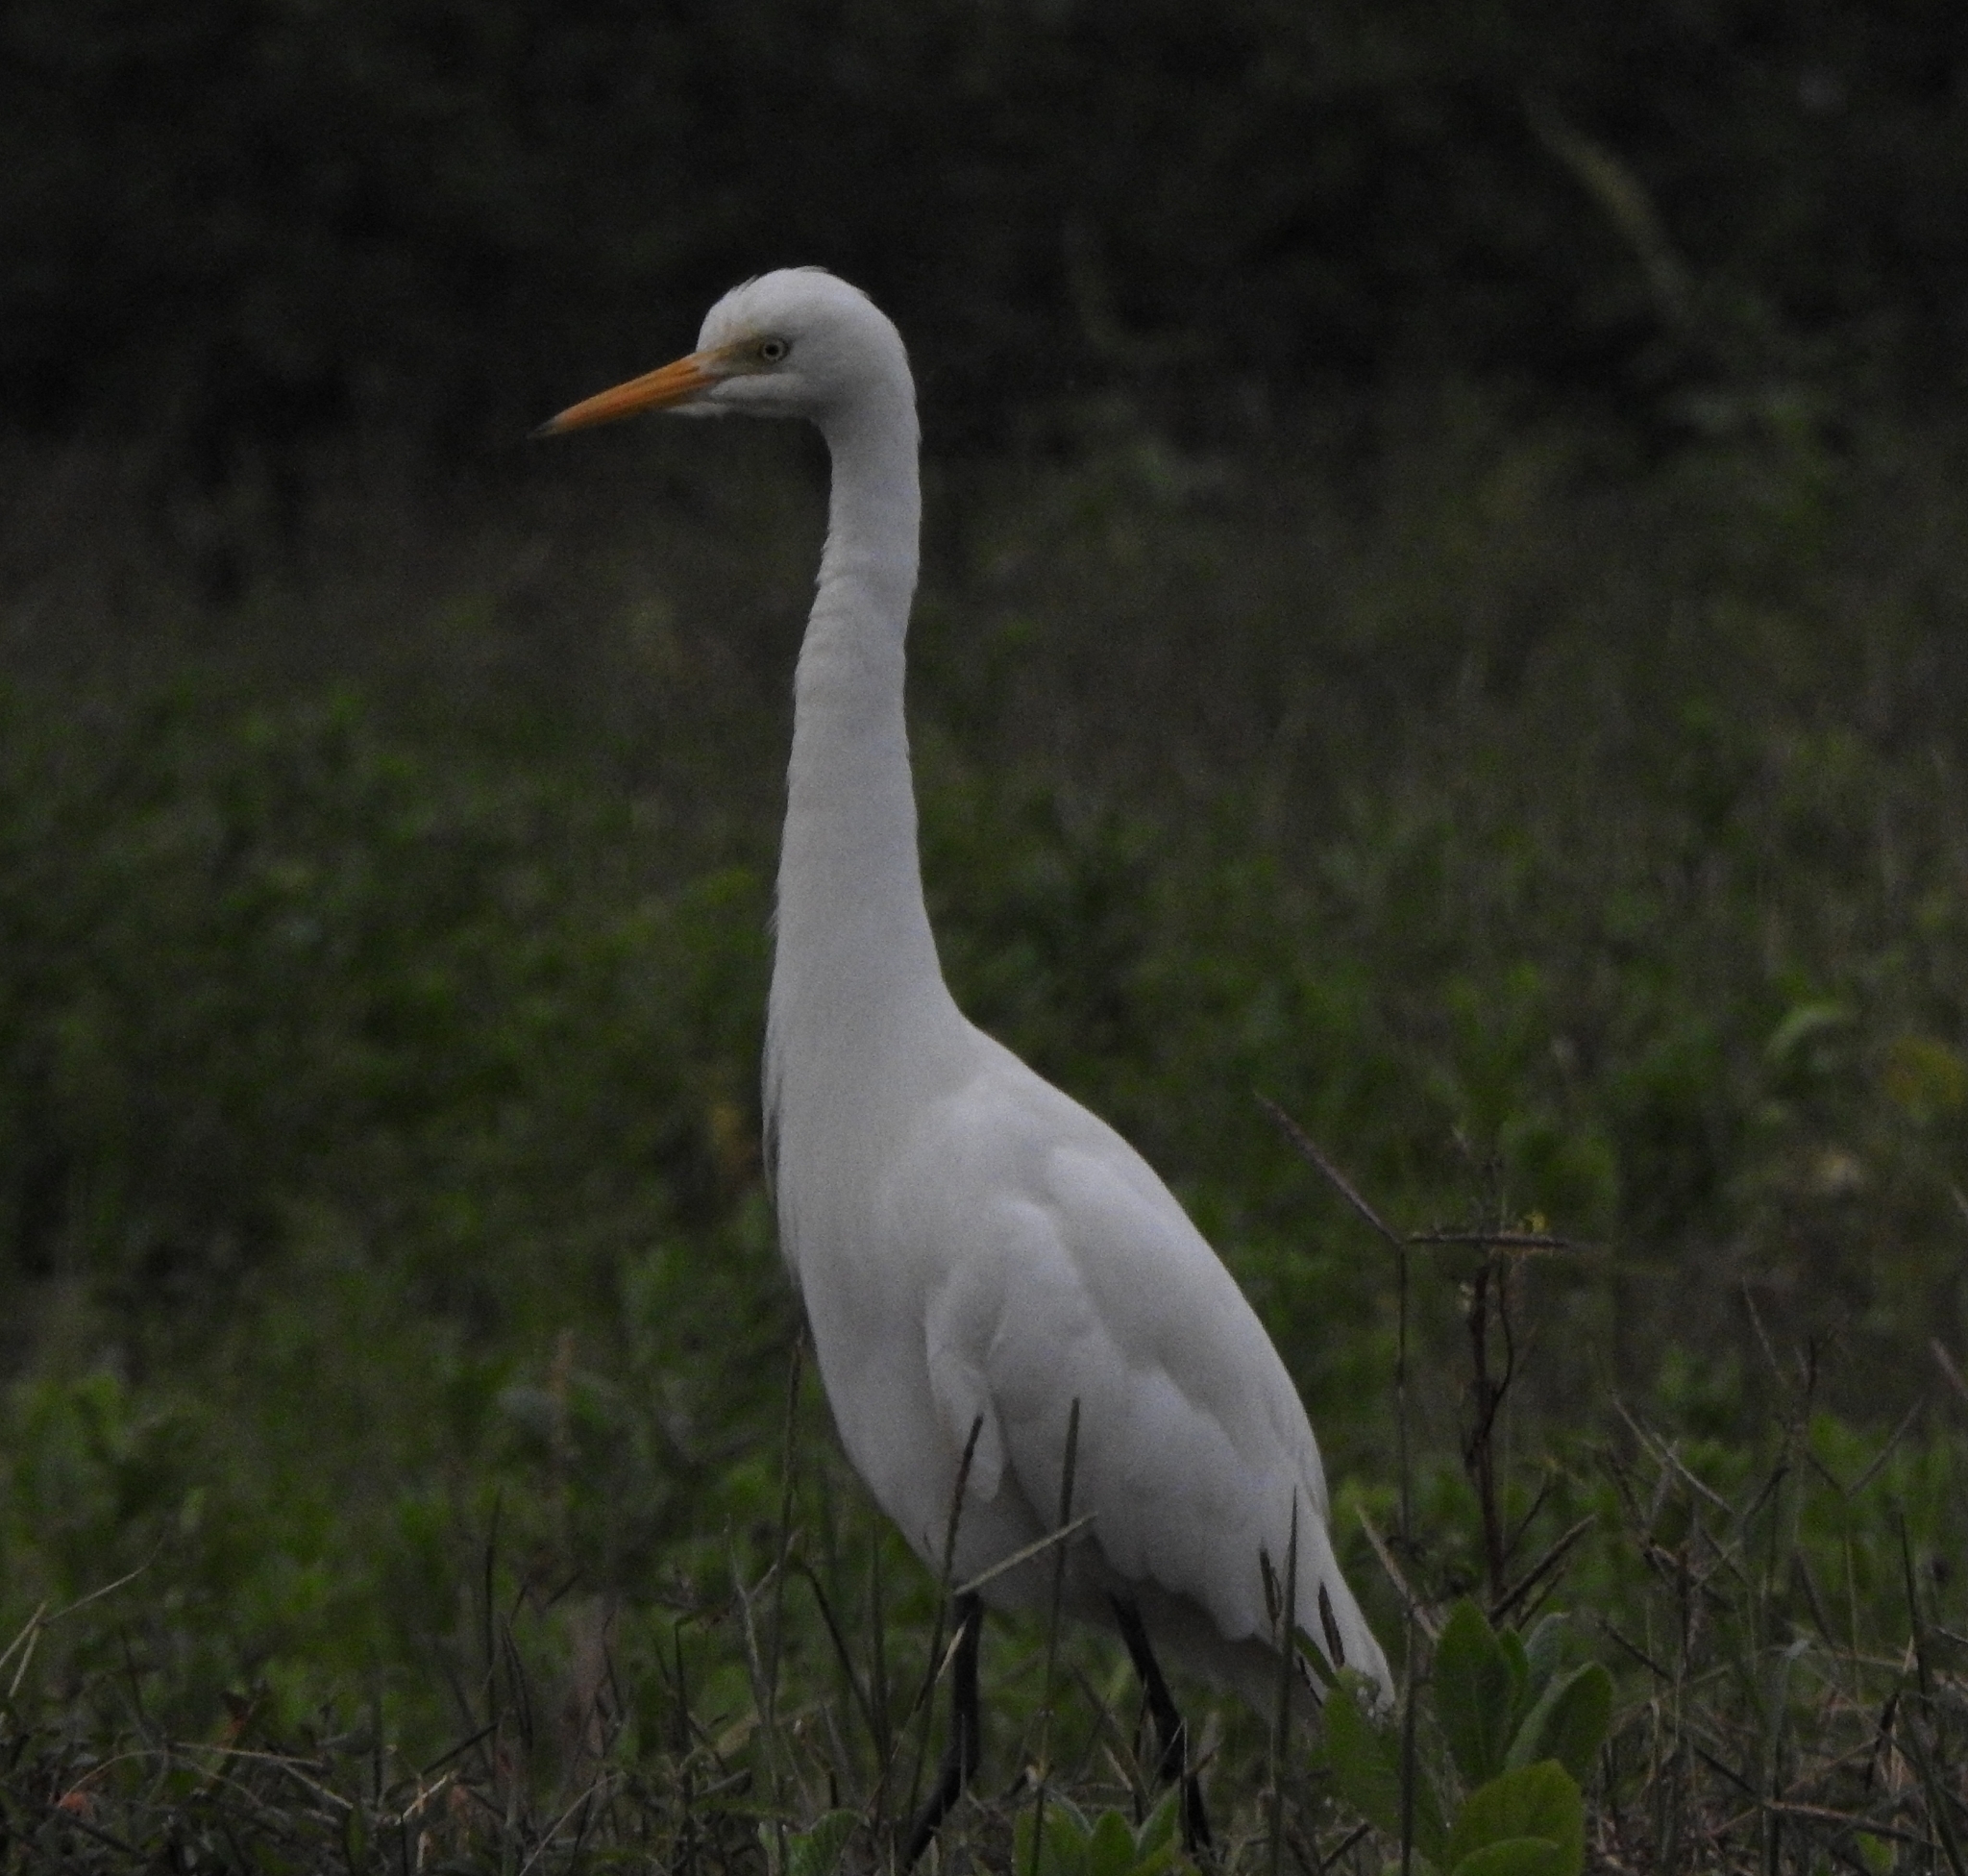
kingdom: Animalia
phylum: Chordata
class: Aves
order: Pelecaniformes
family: Ardeidae
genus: Egretta
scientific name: Egretta intermedia
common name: Intermediate egret
